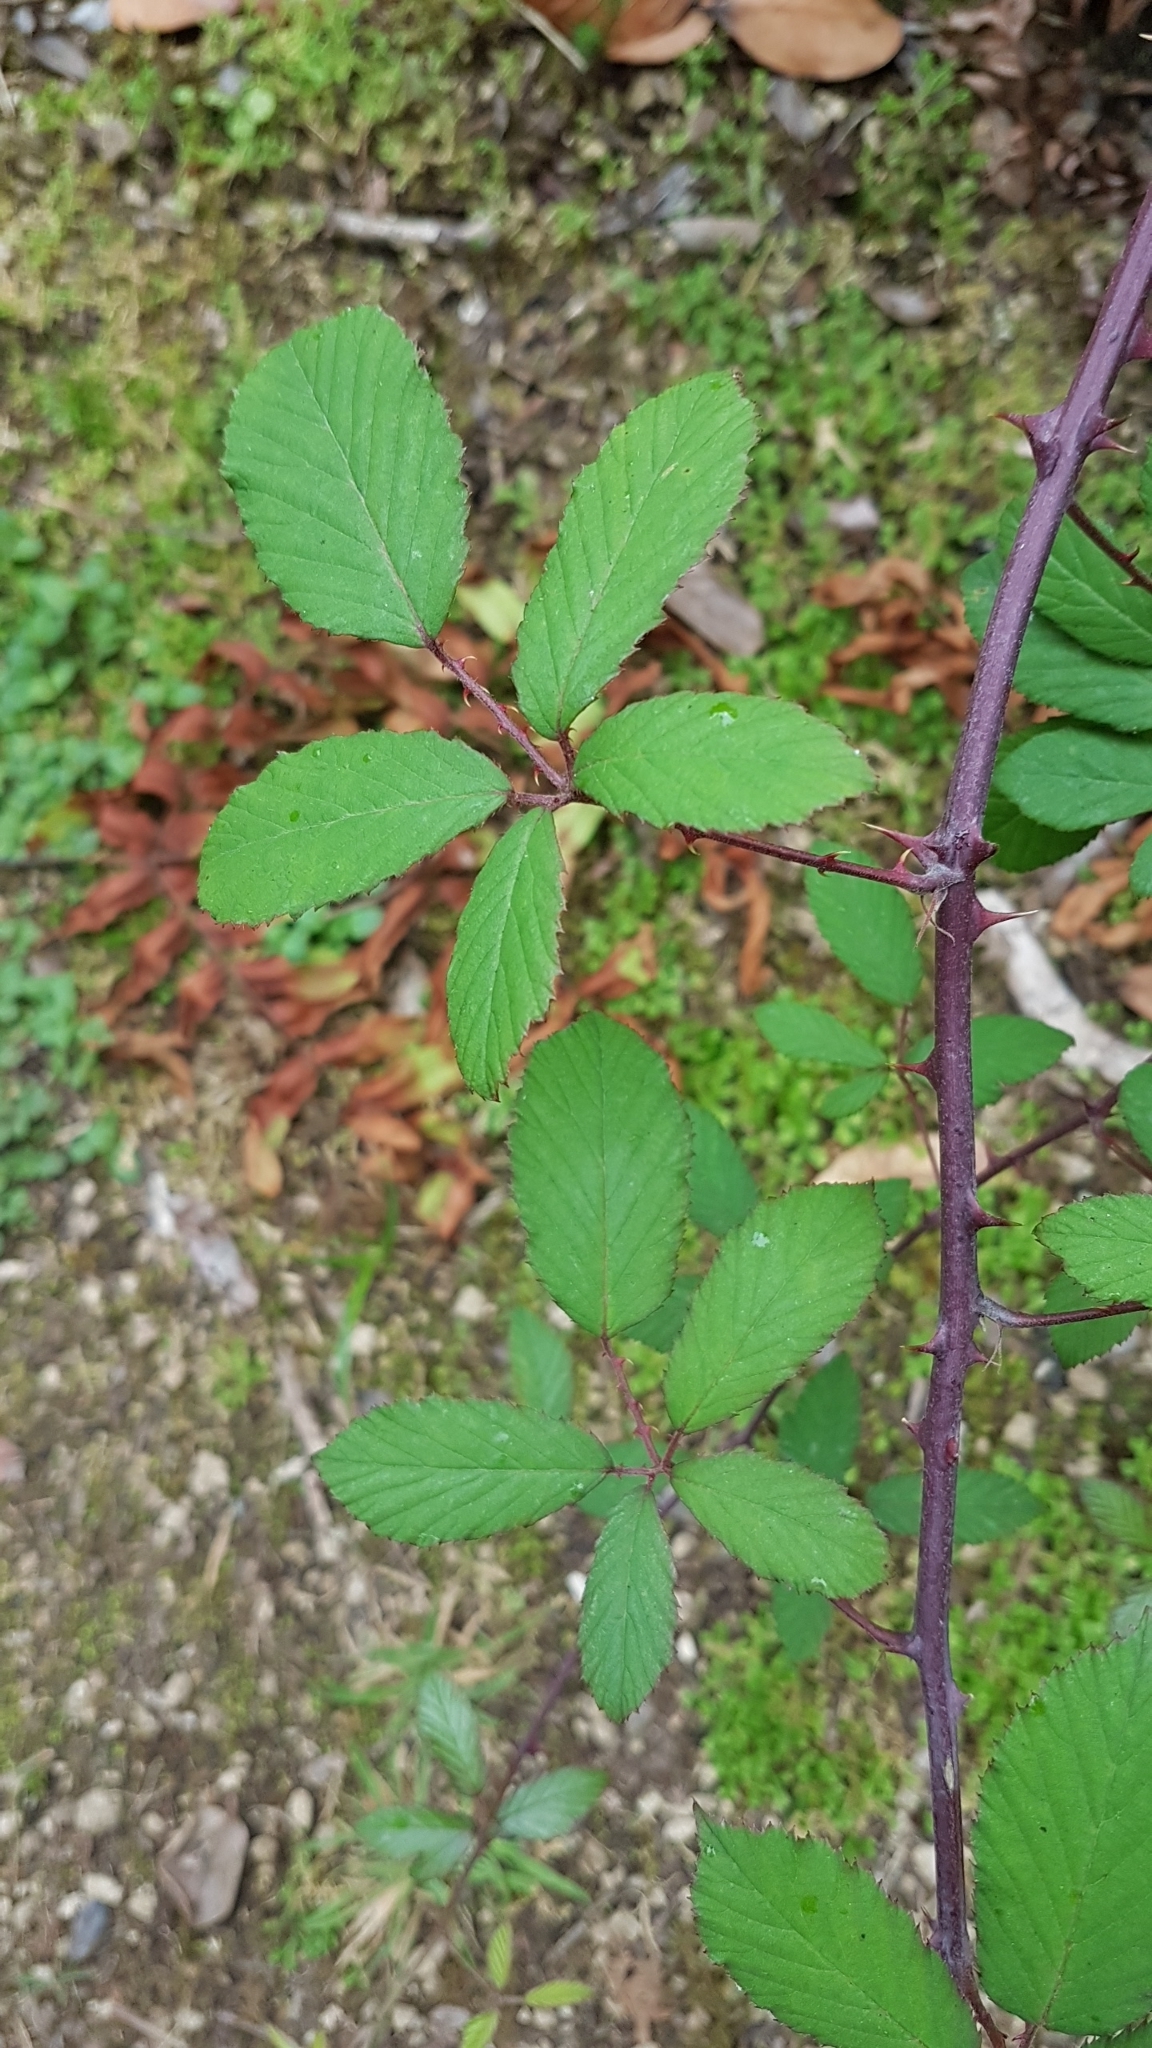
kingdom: Plantae
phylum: Tracheophyta
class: Magnoliopsida
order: Rosales
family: Rosaceae
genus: Rubus
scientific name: Rubus ulmifolius
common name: Elmleaf blackberry
